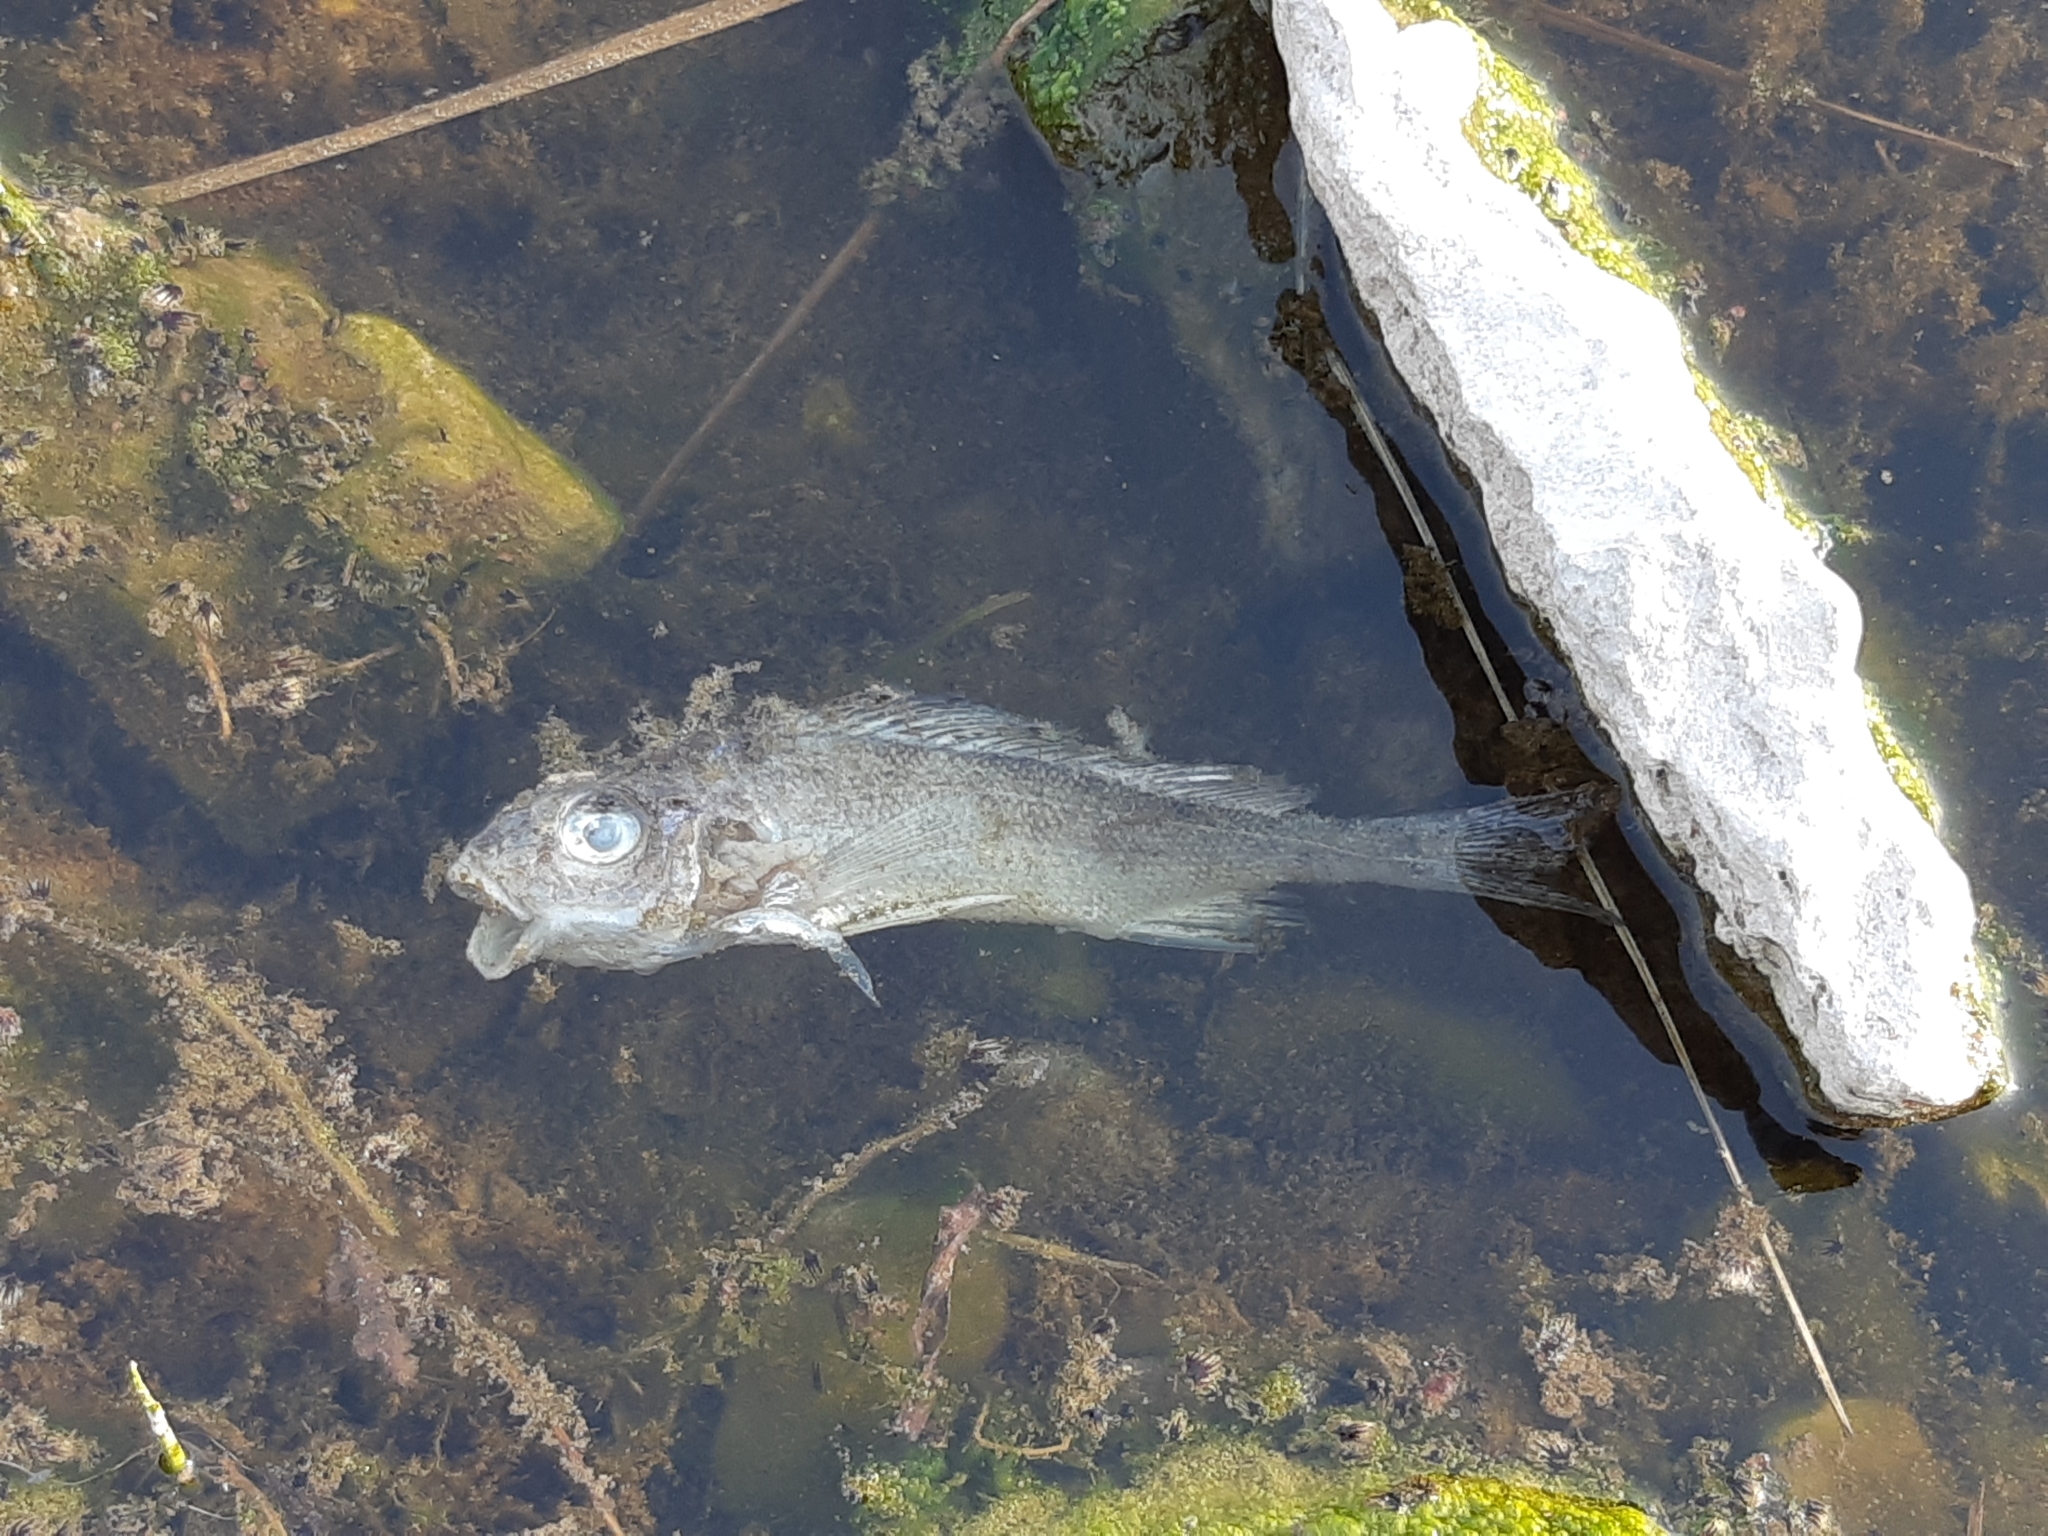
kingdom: Animalia
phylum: Chordata
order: Perciformes
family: Percidae
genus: Gymnocephalus
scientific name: Gymnocephalus cernua
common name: Ruffe
